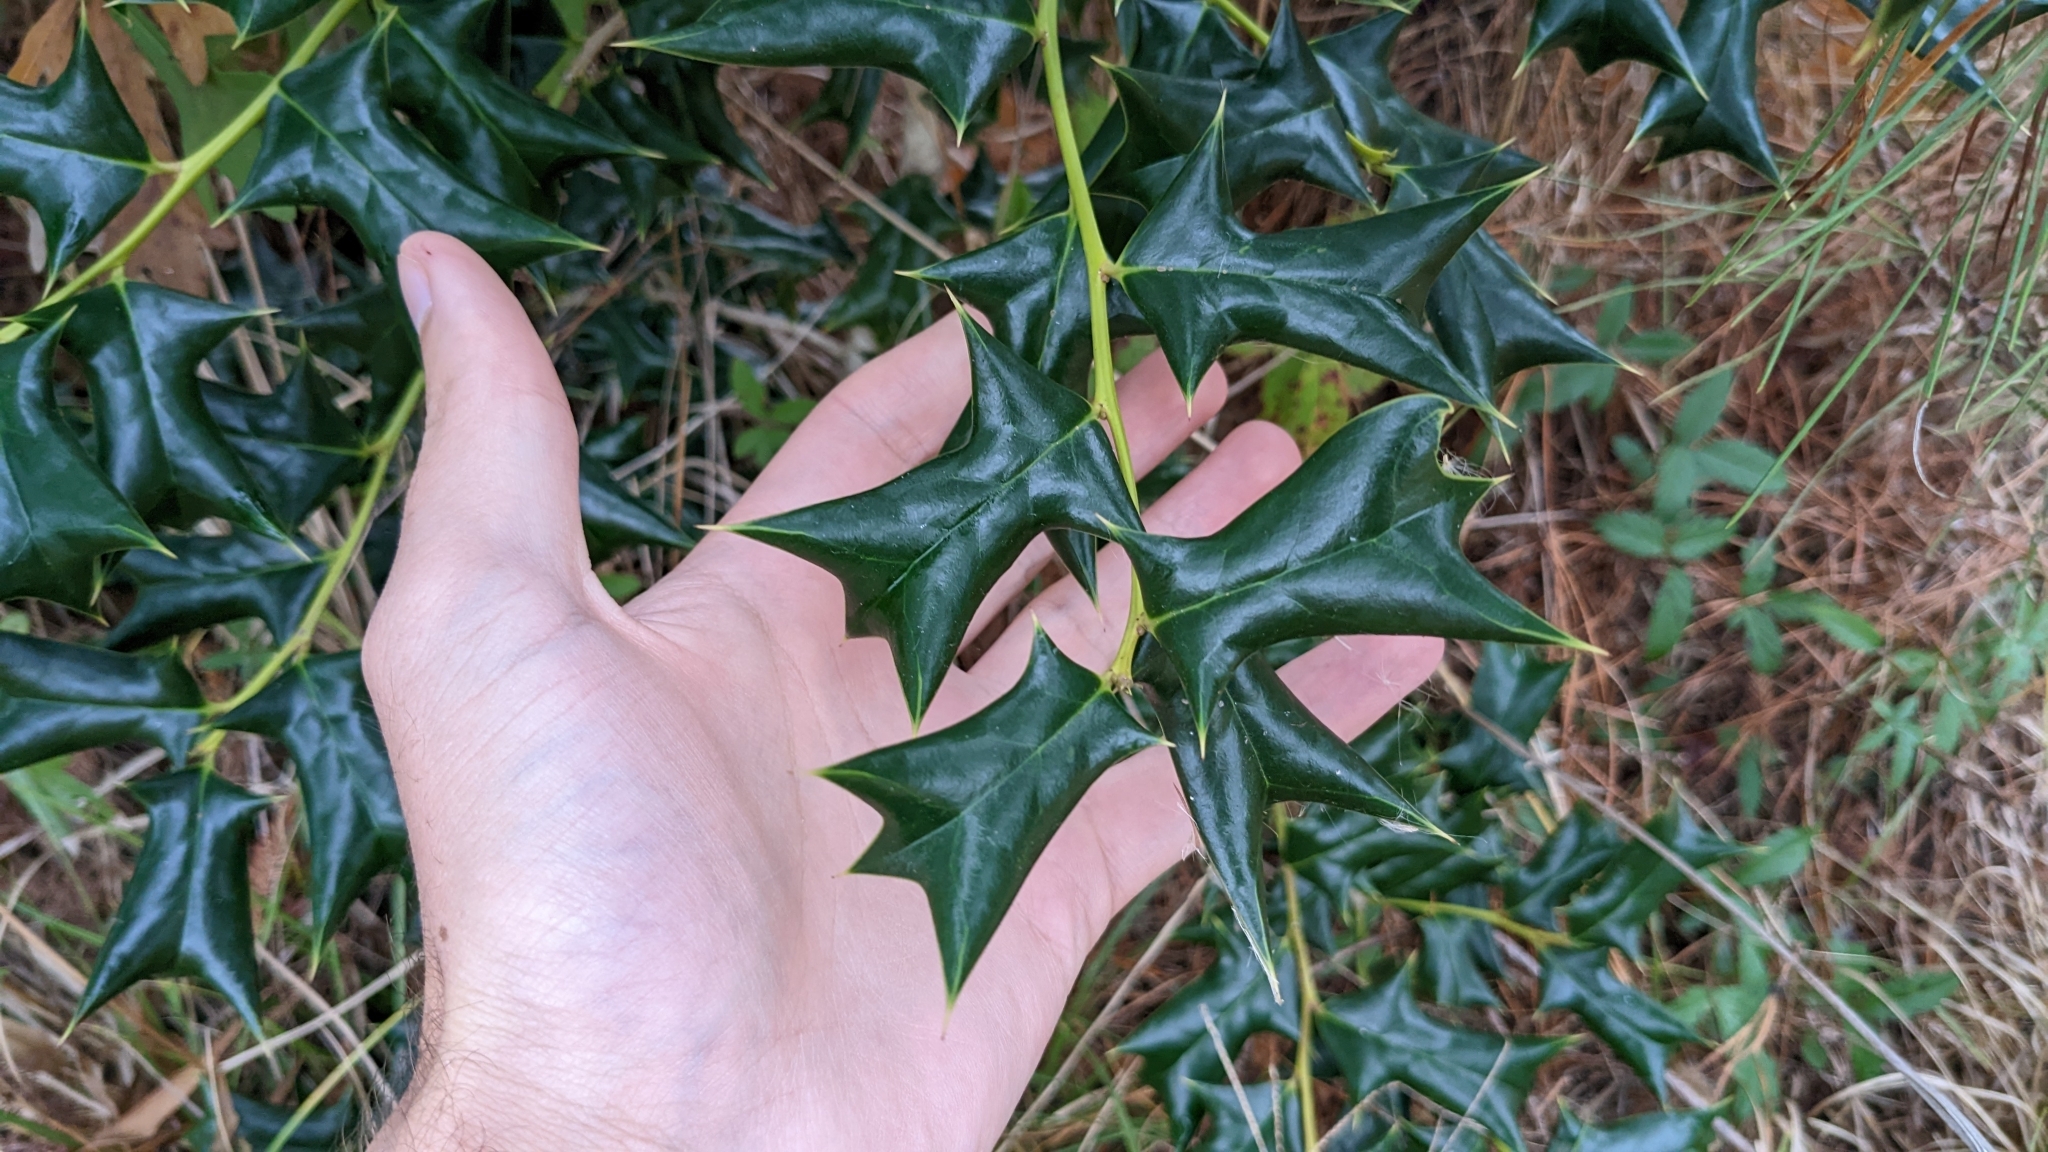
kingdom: Plantae
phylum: Tracheophyta
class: Magnoliopsida
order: Aquifoliales
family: Aquifoliaceae
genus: Ilex
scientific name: Ilex cornuta
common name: Chinese holly
